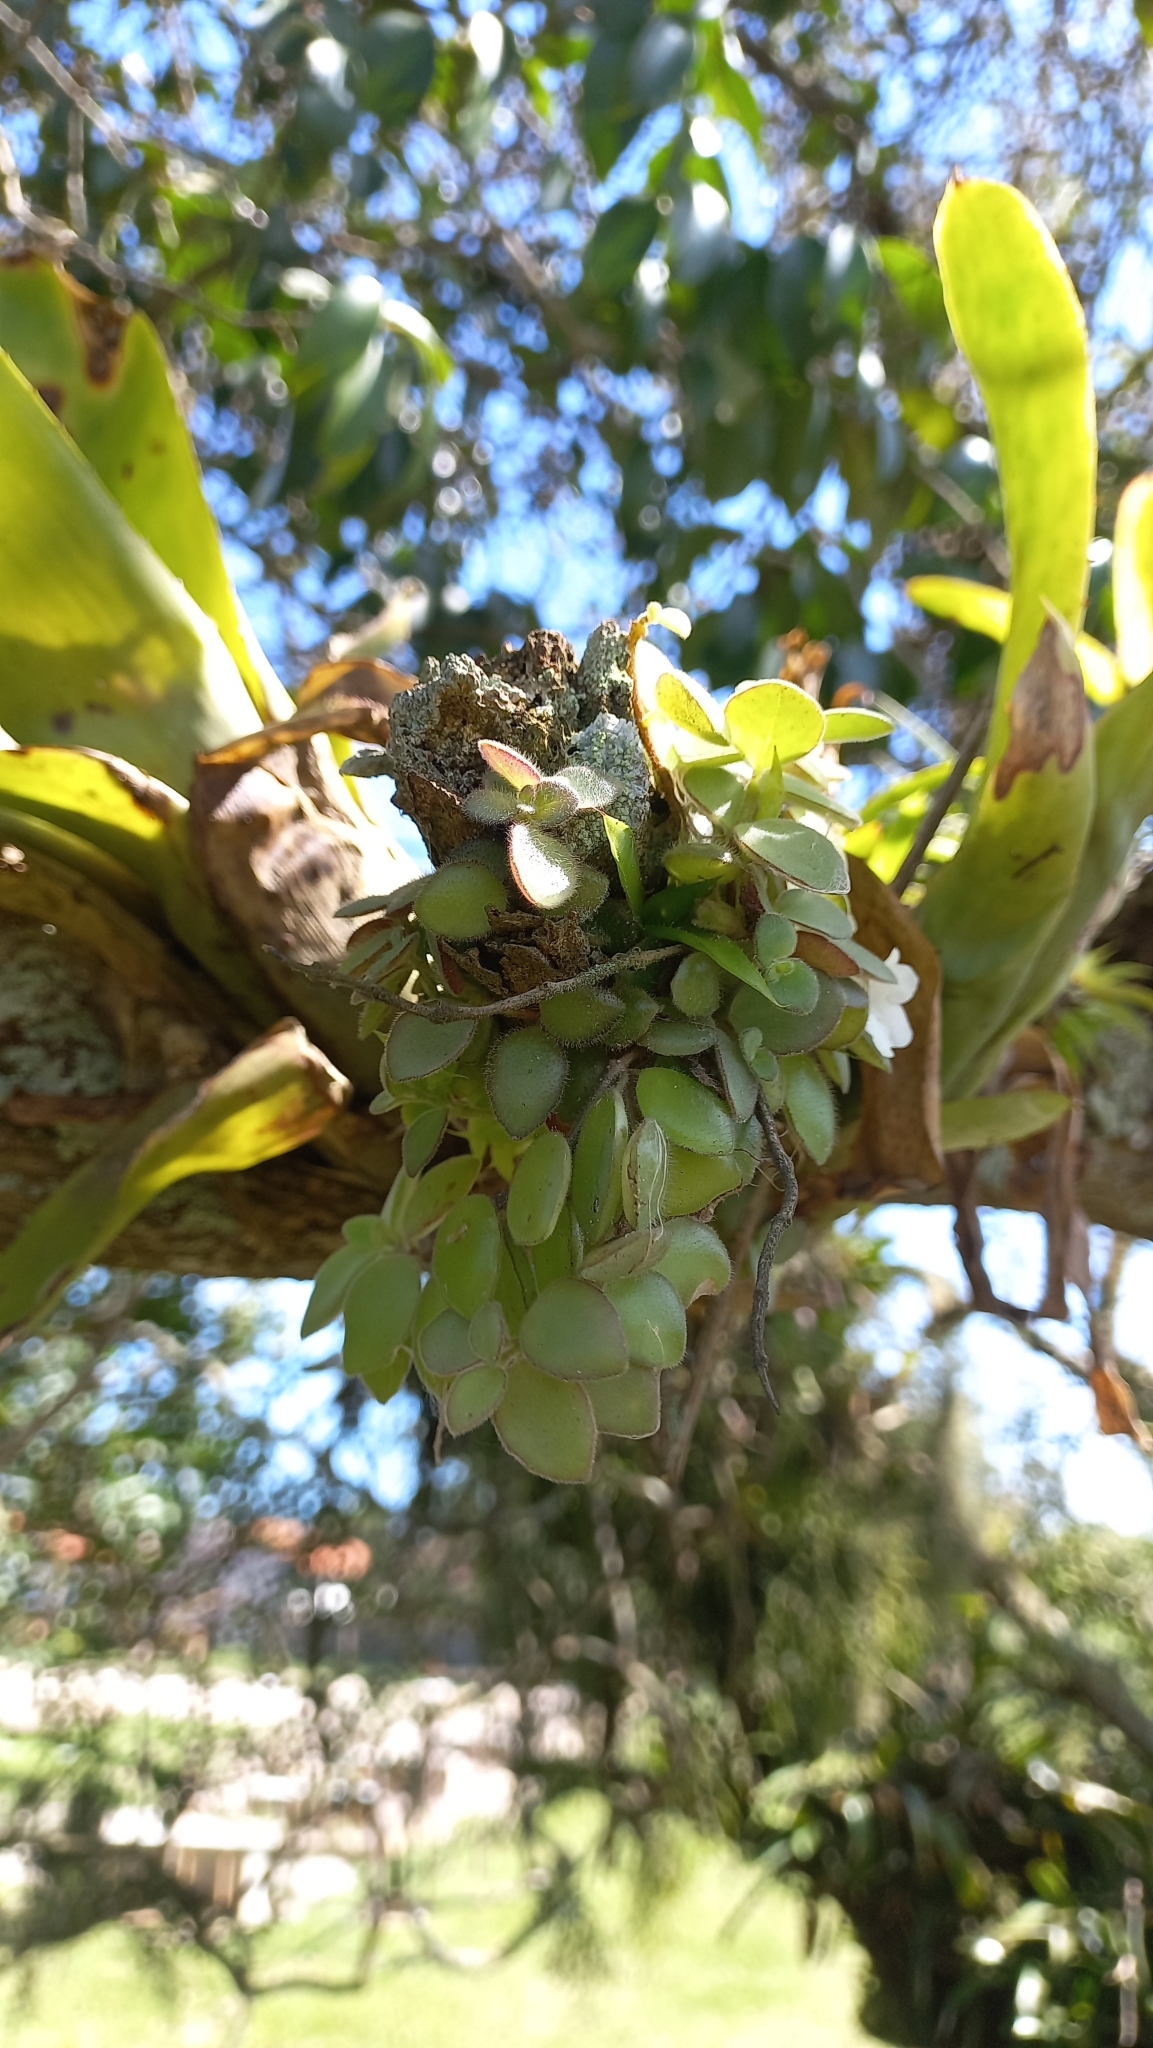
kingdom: Plantae
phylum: Tracheophyta
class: Magnoliopsida
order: Lamiales
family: Gesneriaceae
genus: Codonanthe
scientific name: Codonanthe devosiana
